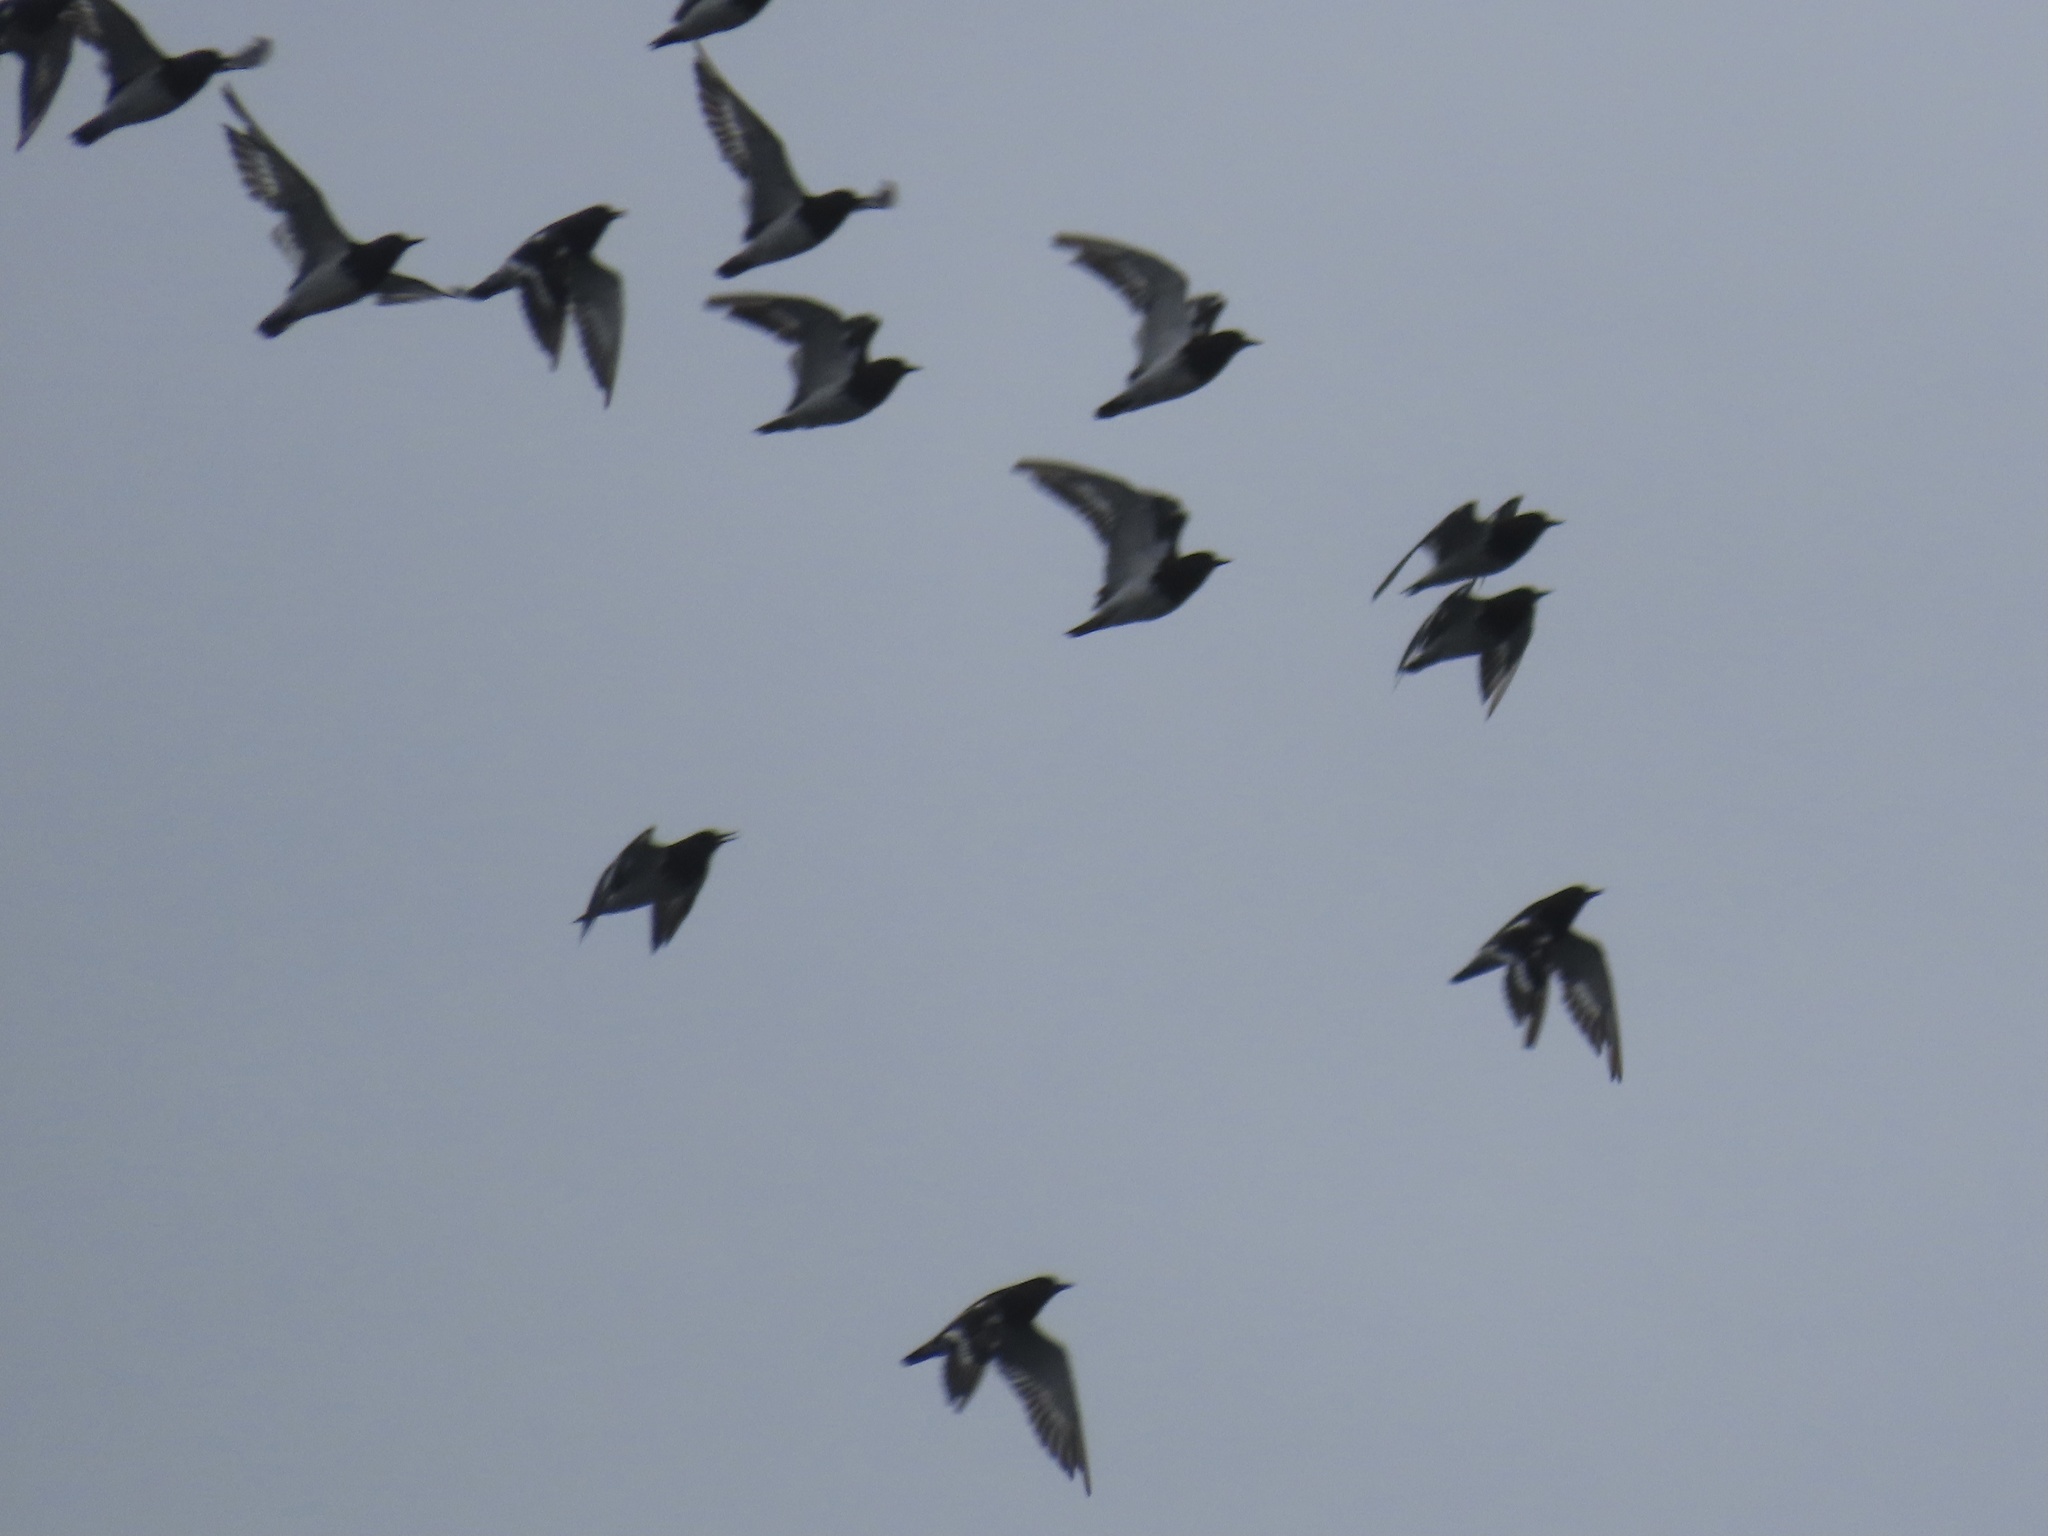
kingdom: Animalia
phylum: Chordata
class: Aves
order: Charadriiformes
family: Scolopacidae
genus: Arenaria
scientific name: Arenaria melanocephala
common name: Black turnstone
